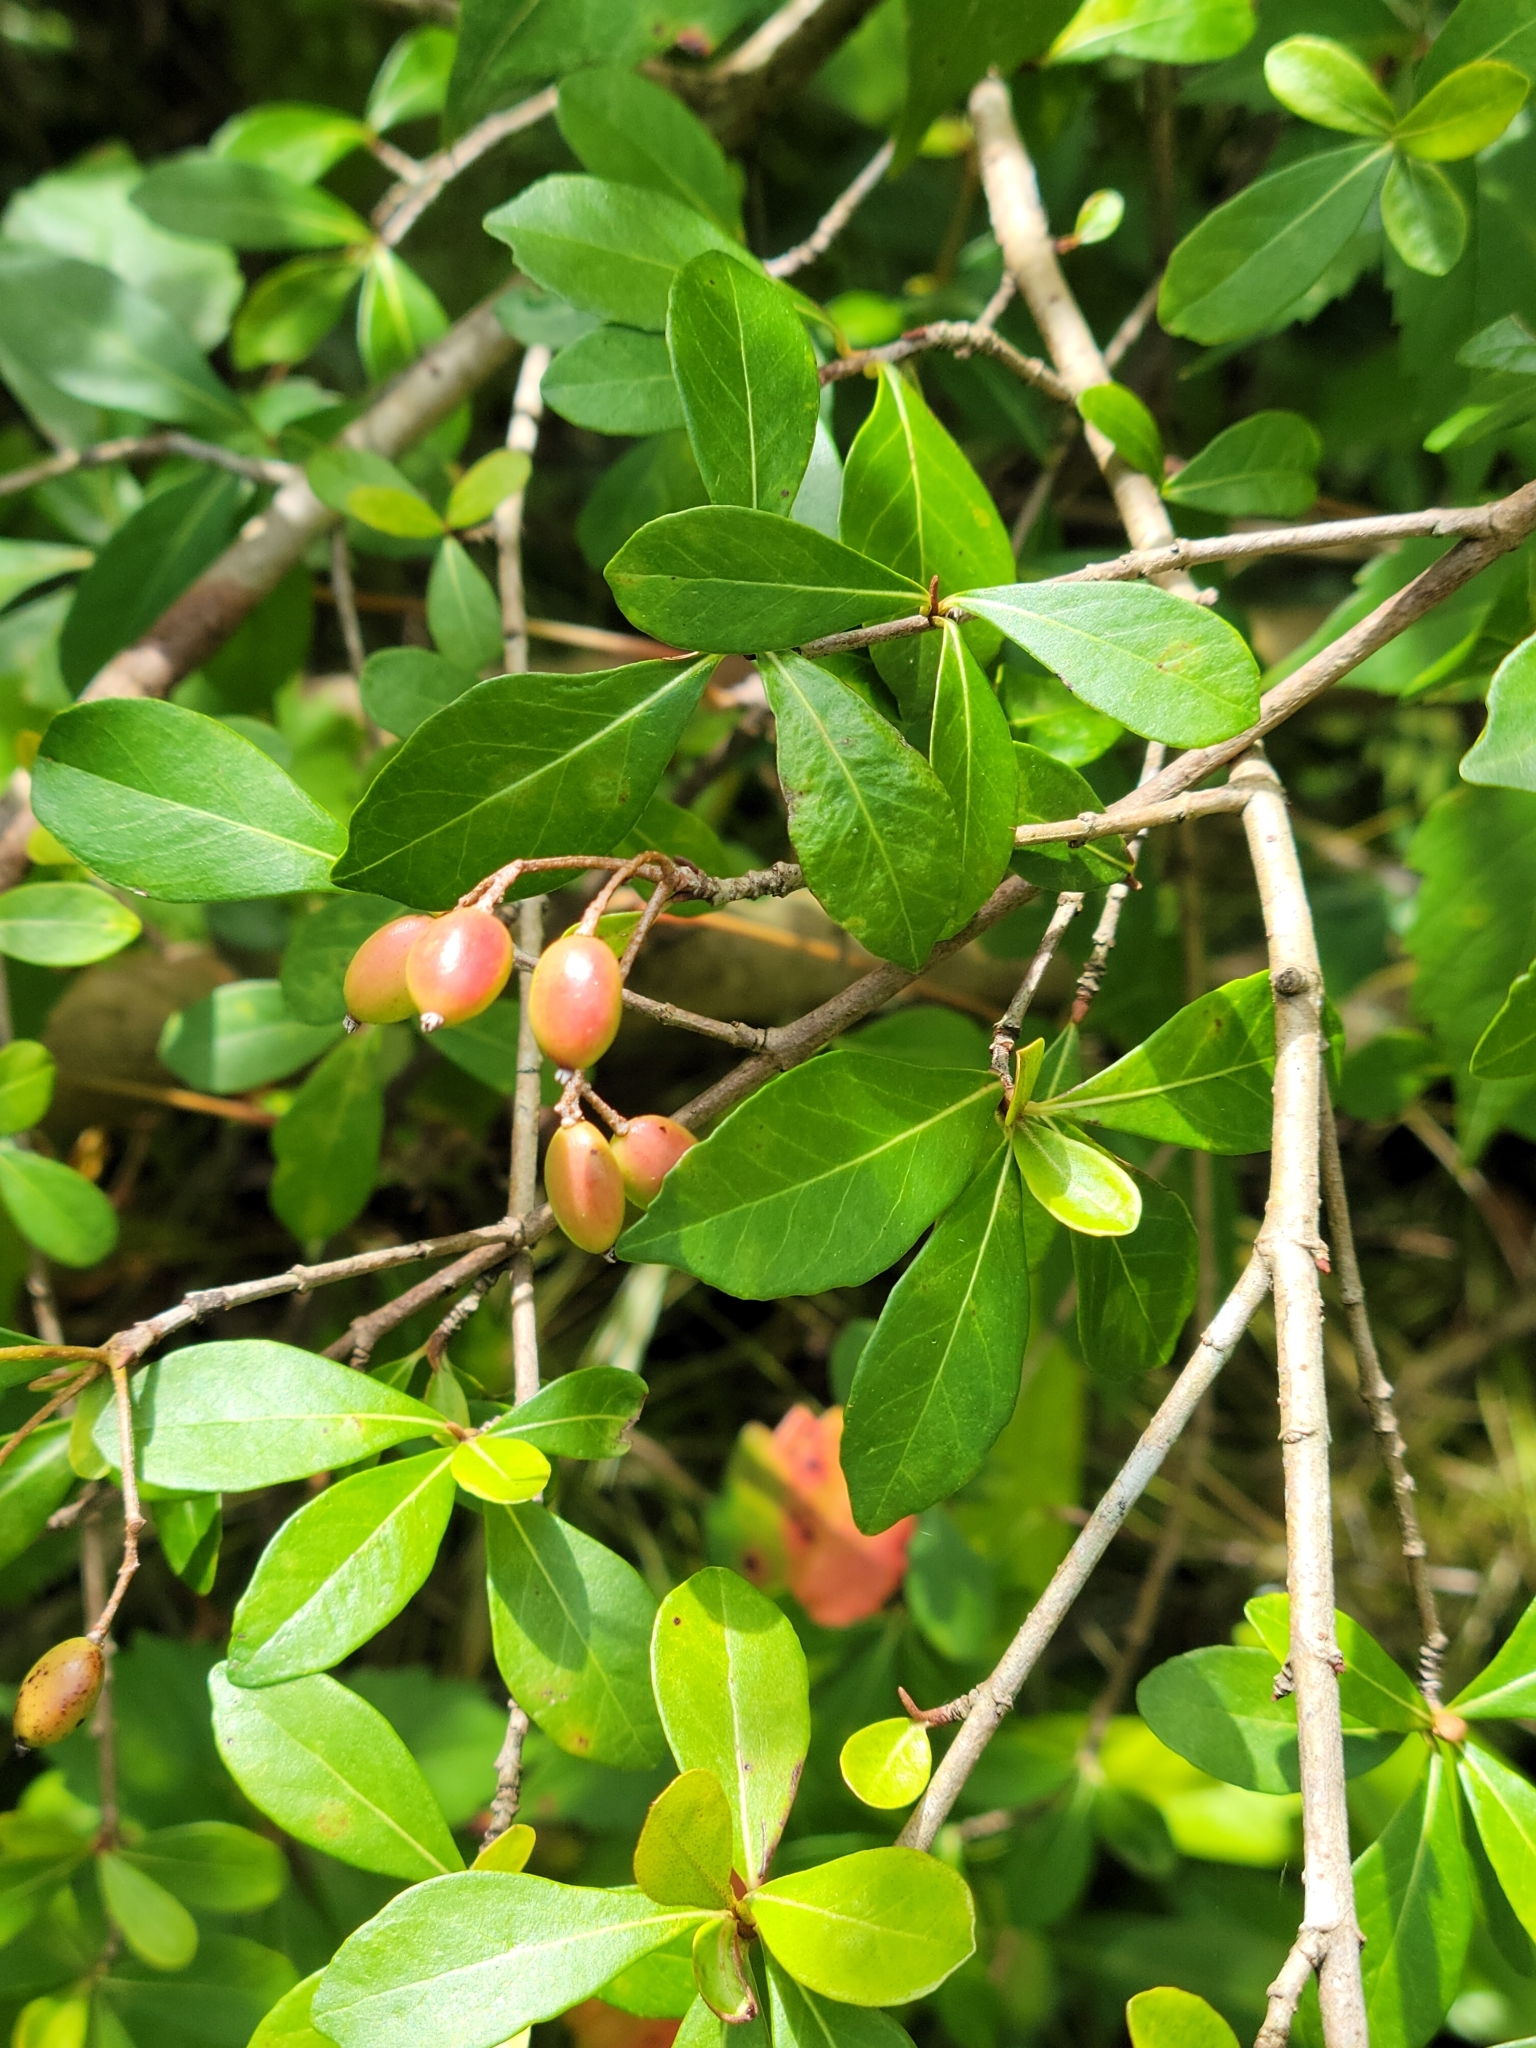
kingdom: Plantae
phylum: Tracheophyta
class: Magnoliopsida
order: Dipsacales
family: Viburnaceae
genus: Viburnum
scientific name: Viburnum obovatum
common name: Walter's viburnum
